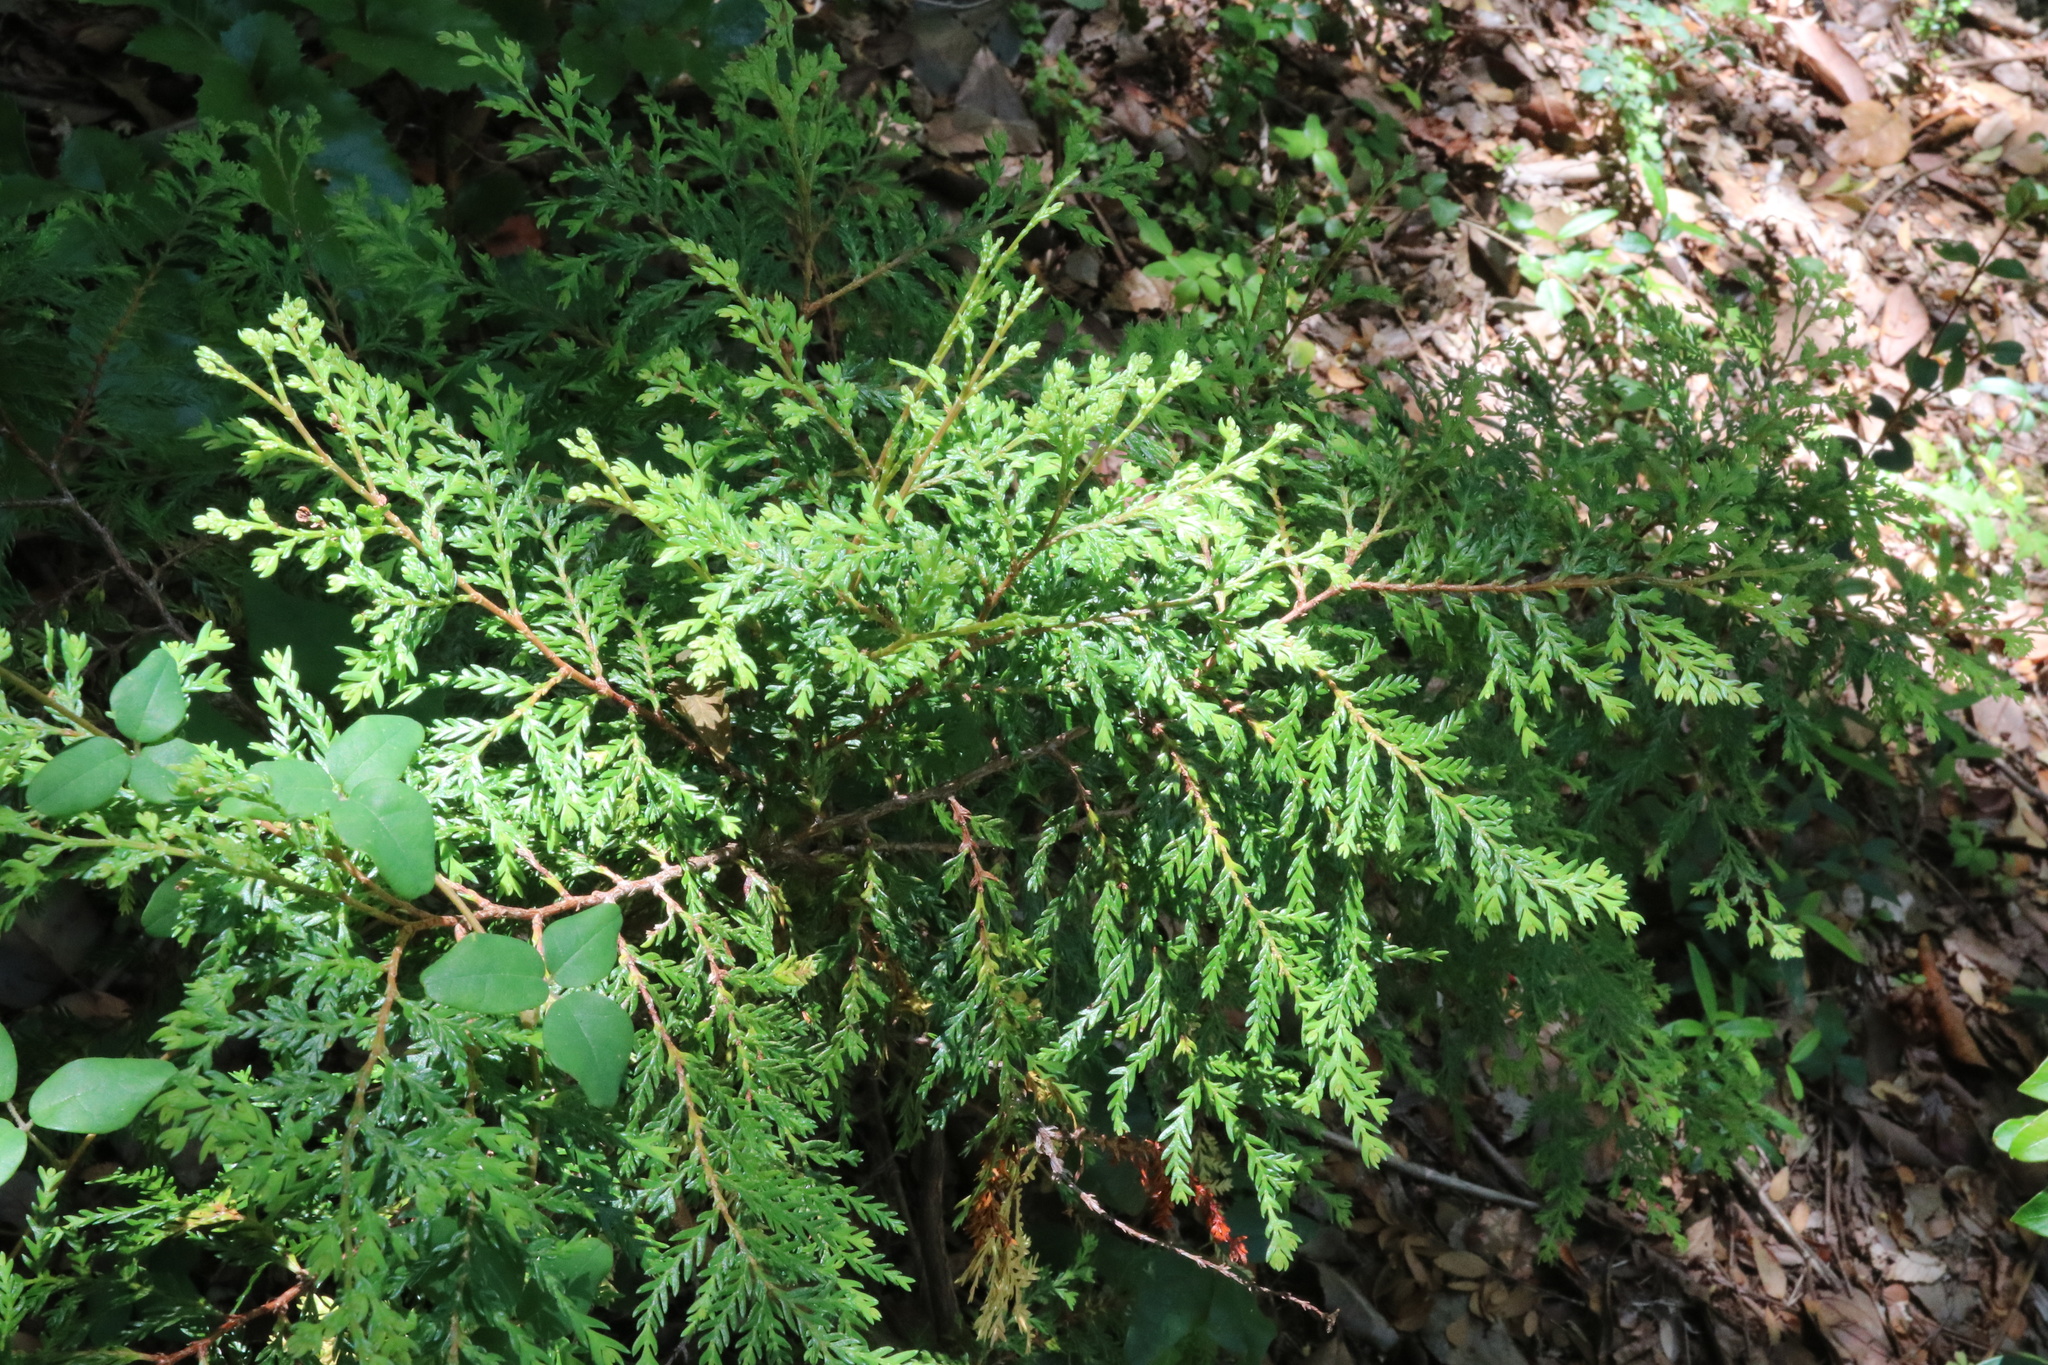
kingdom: Plantae
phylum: Tracheophyta
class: Pinopsida
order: Pinales
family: Cupressaceae
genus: Austrocedrus
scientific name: Austrocedrus chilensis
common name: Chilean incense-cedar
